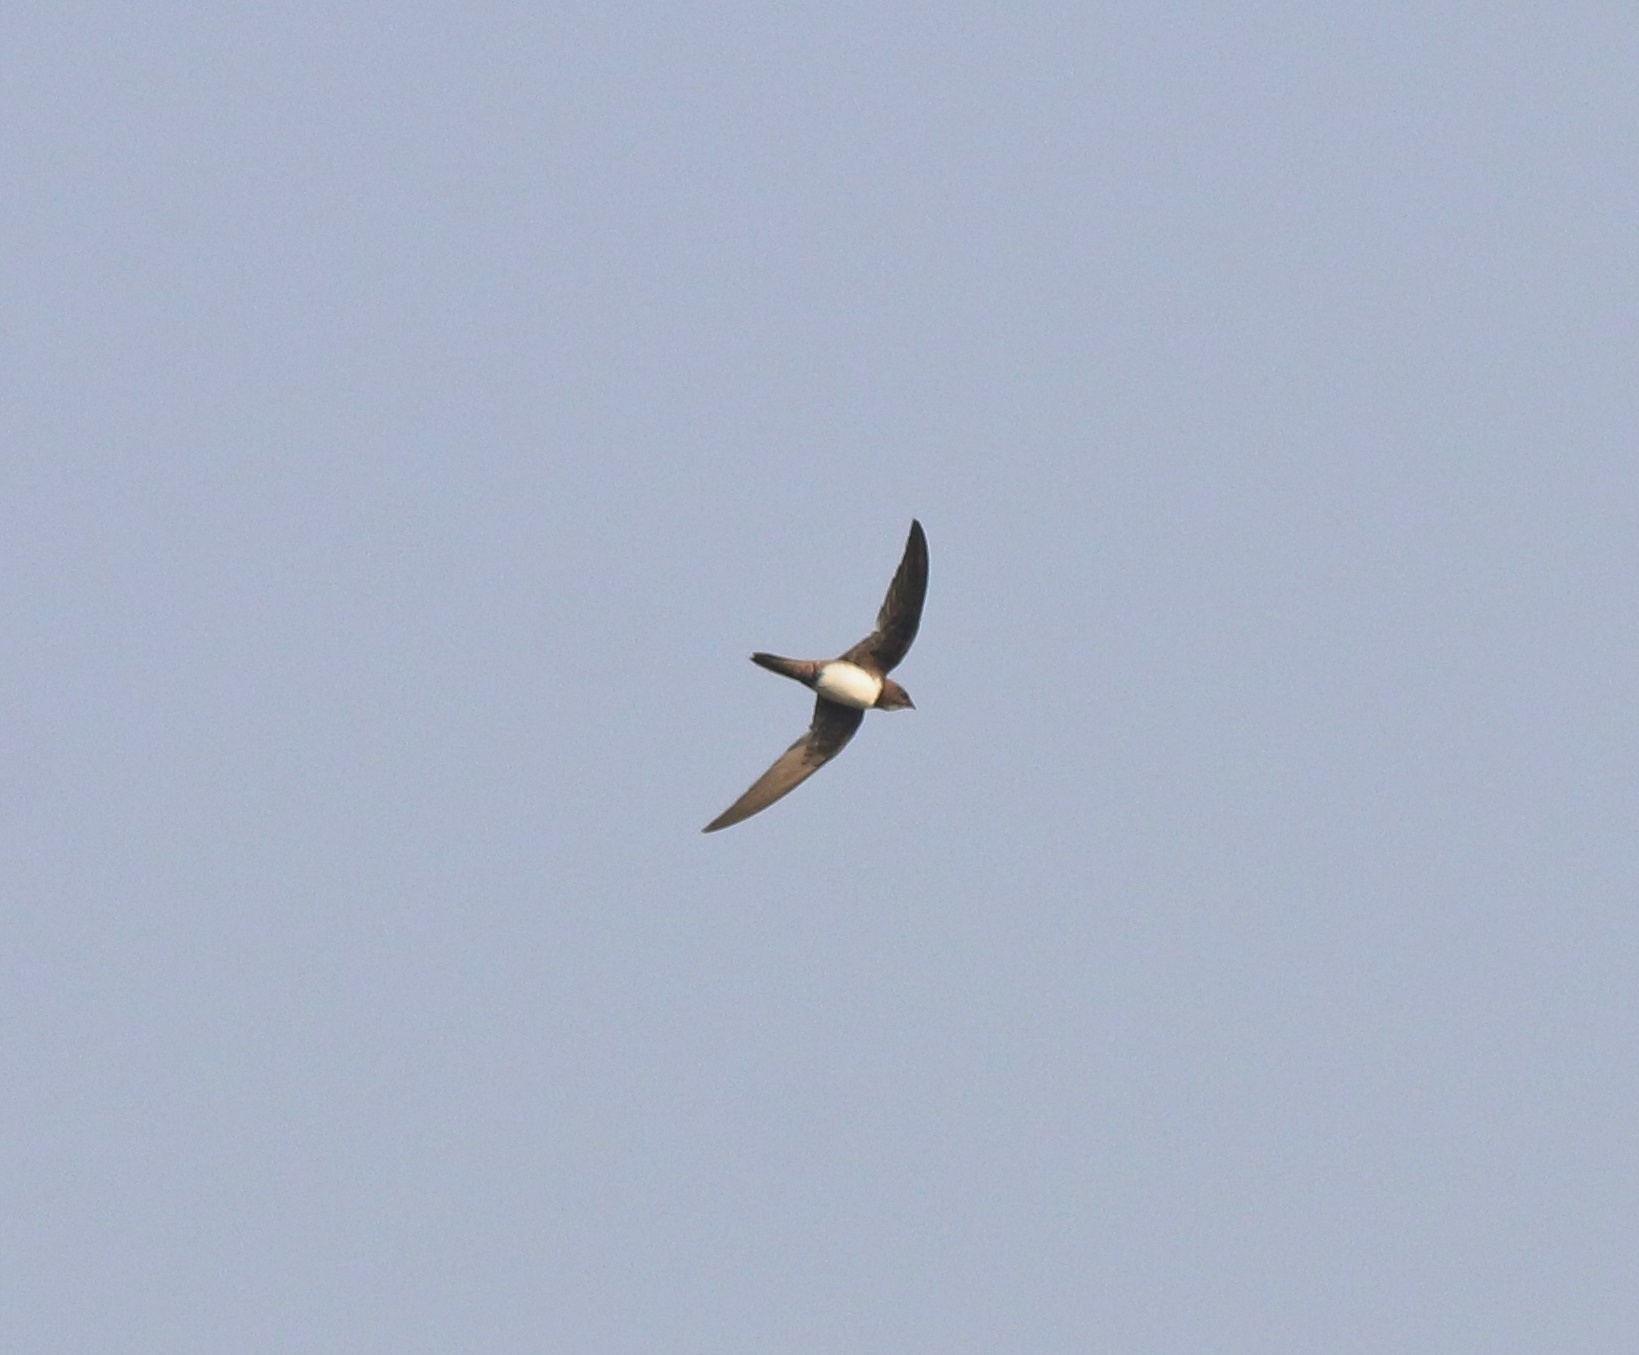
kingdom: Animalia
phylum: Chordata
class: Aves
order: Apodiformes
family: Apodidae
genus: Tachymarptis
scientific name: Tachymarptis melba
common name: Alpine swift
